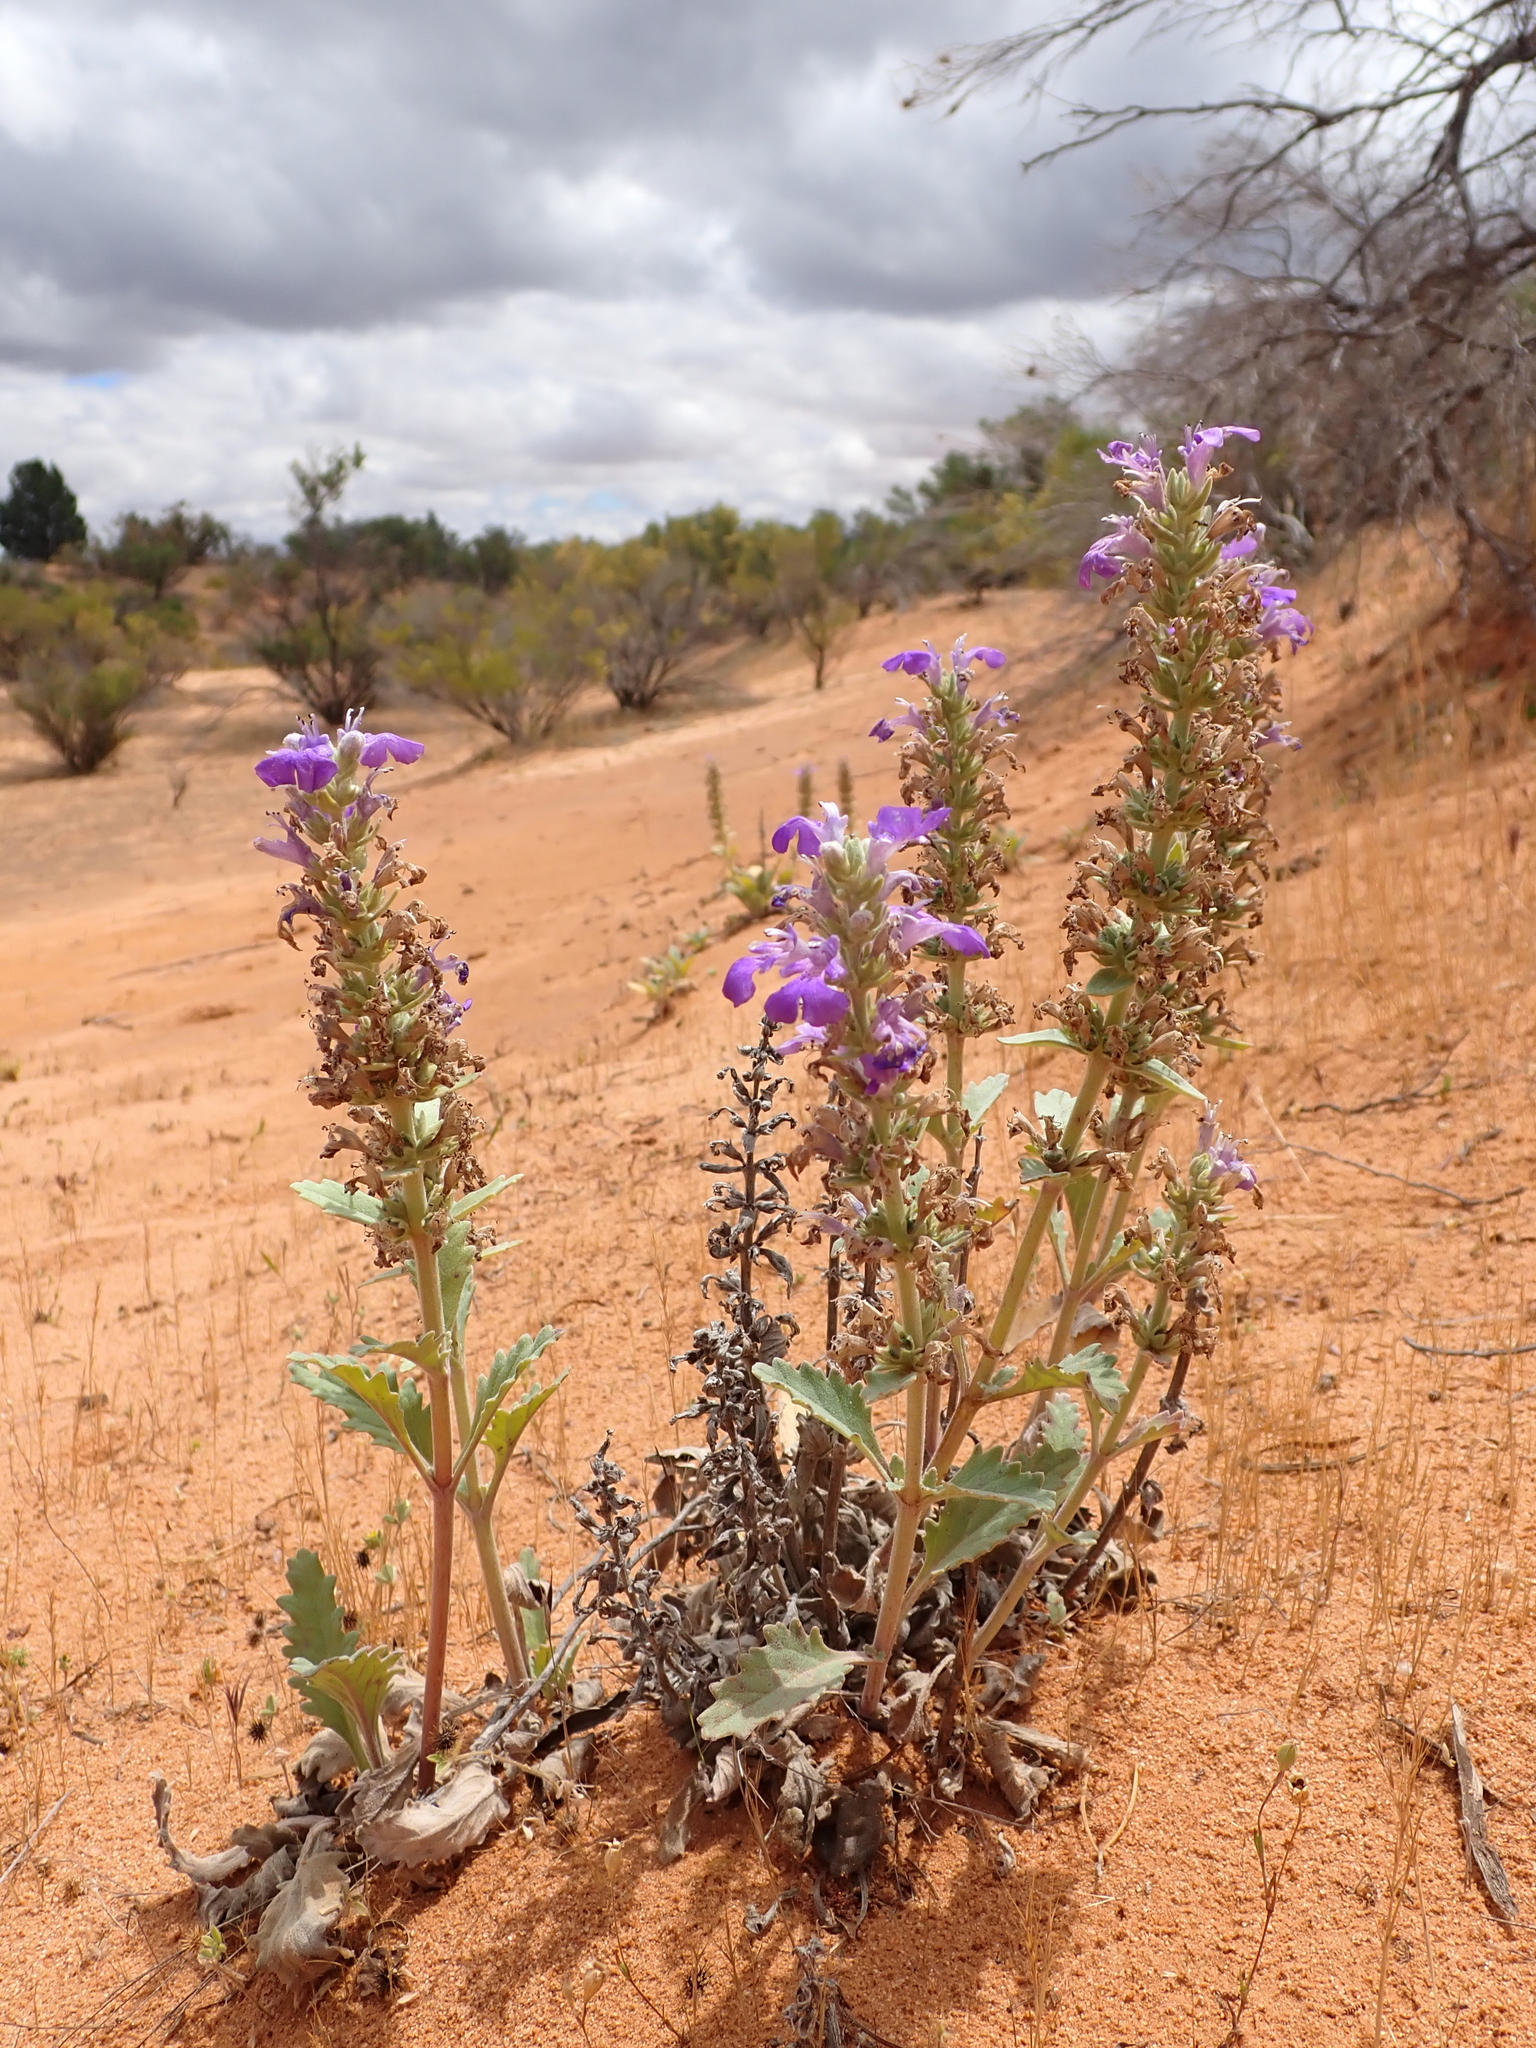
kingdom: Plantae
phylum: Tracheophyta
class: Magnoliopsida
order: Lamiales
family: Lamiaceae
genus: Ajuga
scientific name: Ajuga australis
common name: Australian bugle
